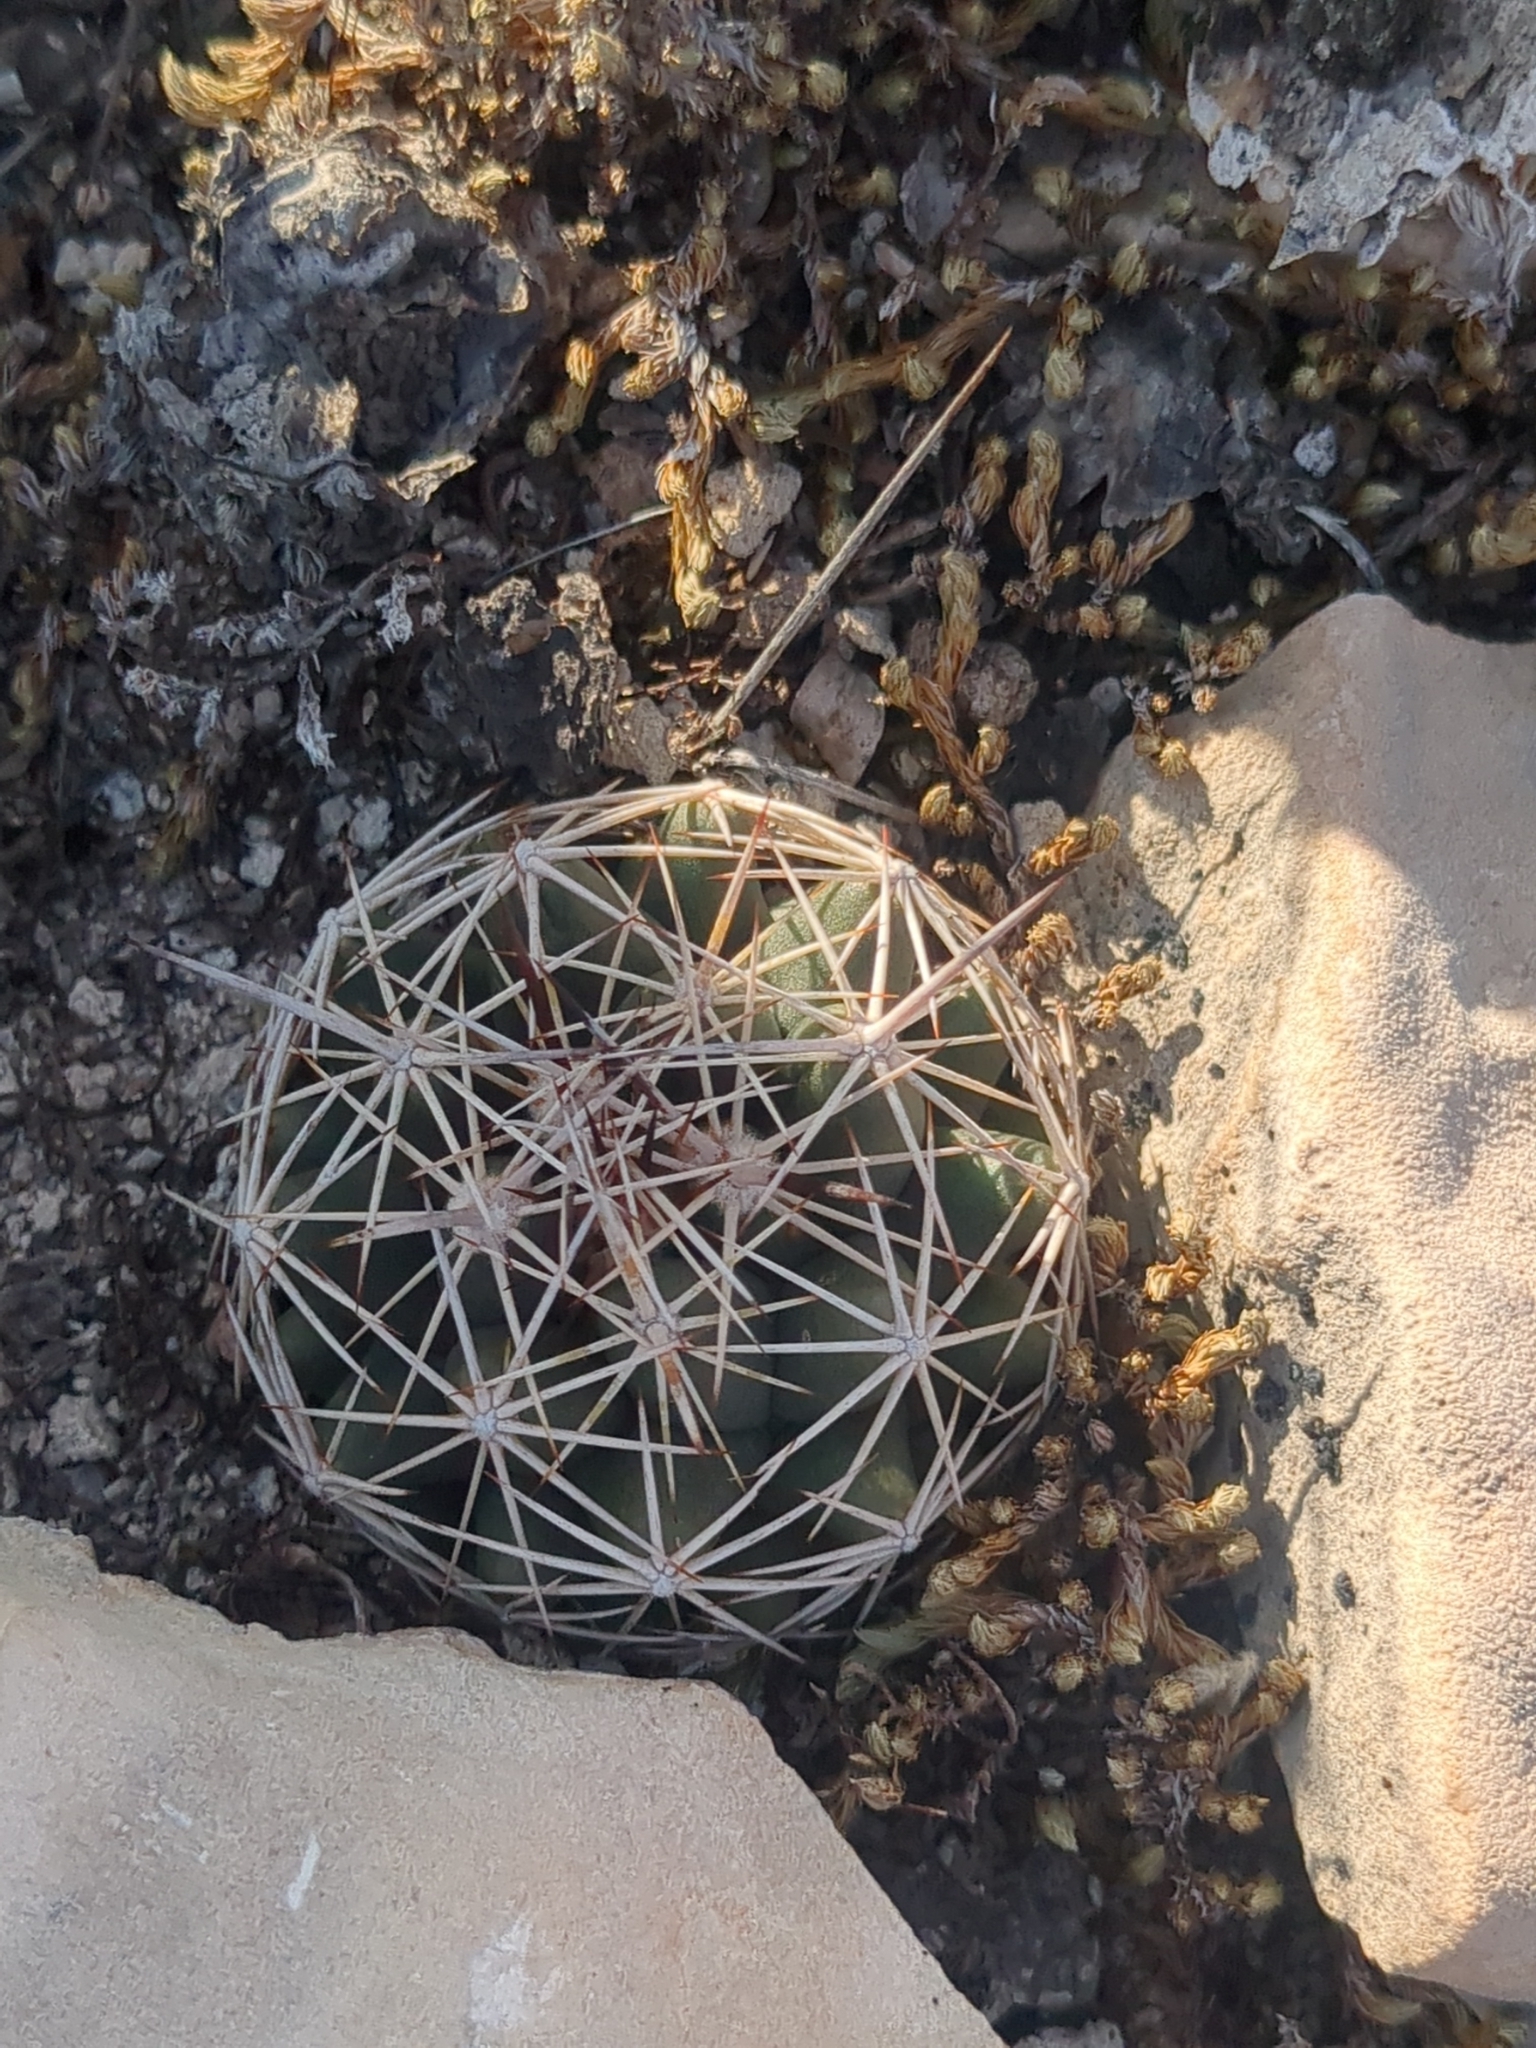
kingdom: Plantae
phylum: Tracheophyta
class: Magnoliopsida
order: Caryophyllales
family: Cactaceae
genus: Coryphantha
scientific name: Coryphantha sulcata
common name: Finger cactus
